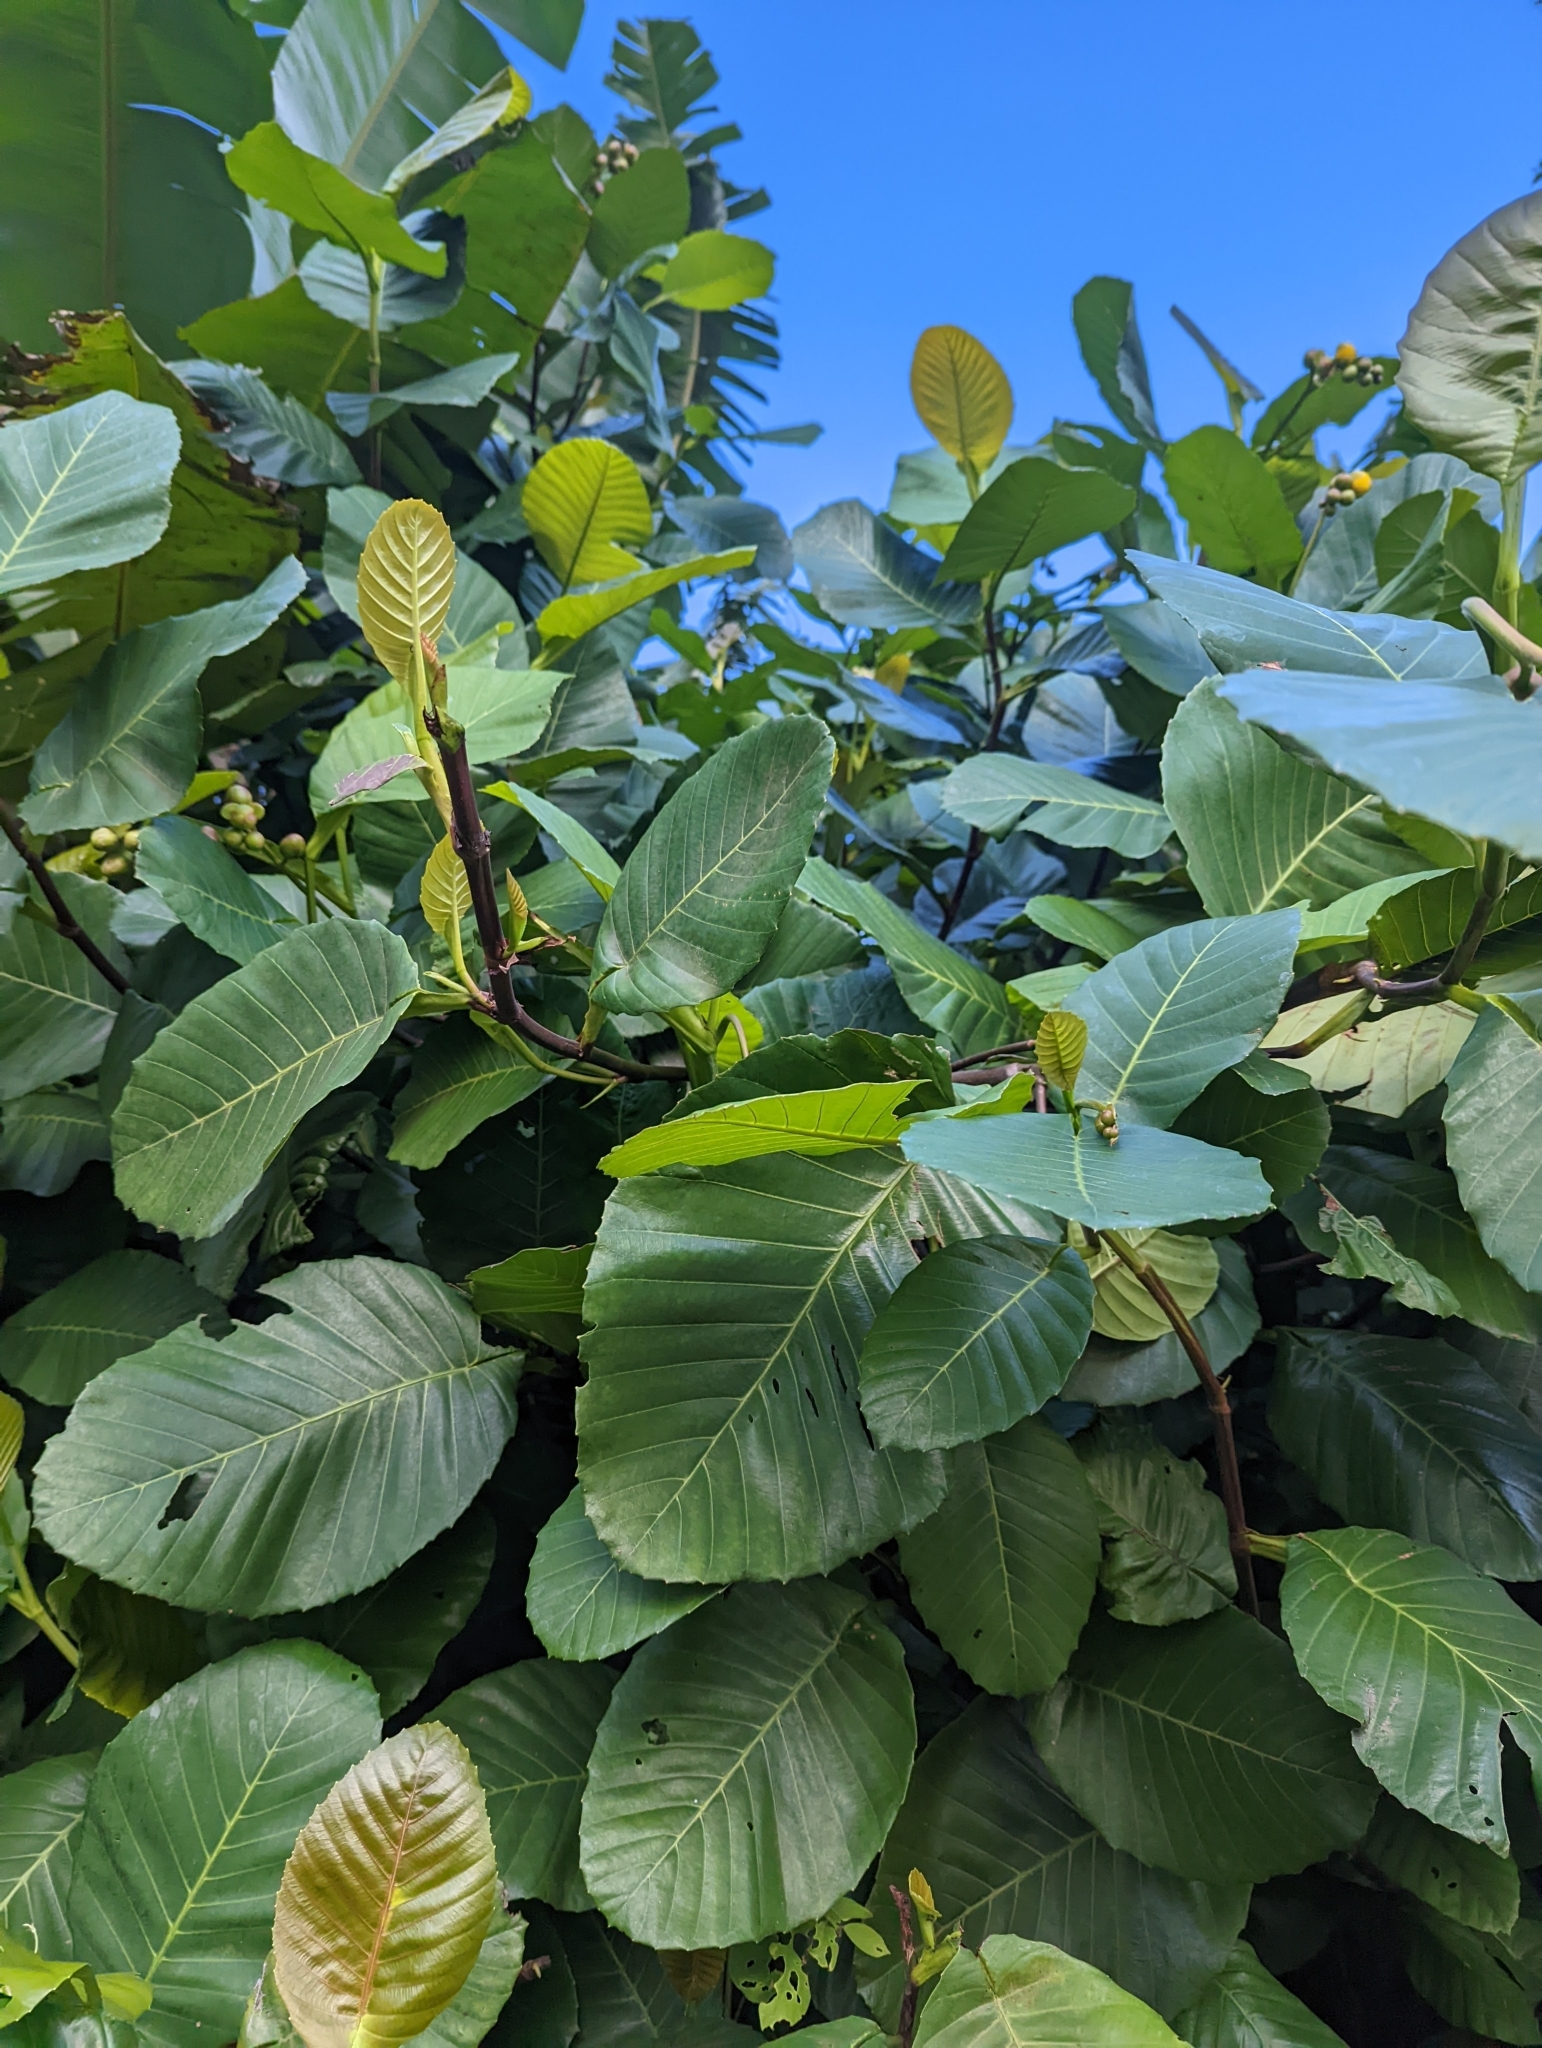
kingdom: Plantae
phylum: Tracheophyta
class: Magnoliopsida
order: Dilleniales
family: Dilleniaceae
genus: Dillenia
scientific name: Dillenia suffruticosa
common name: Shrubby dillenia
